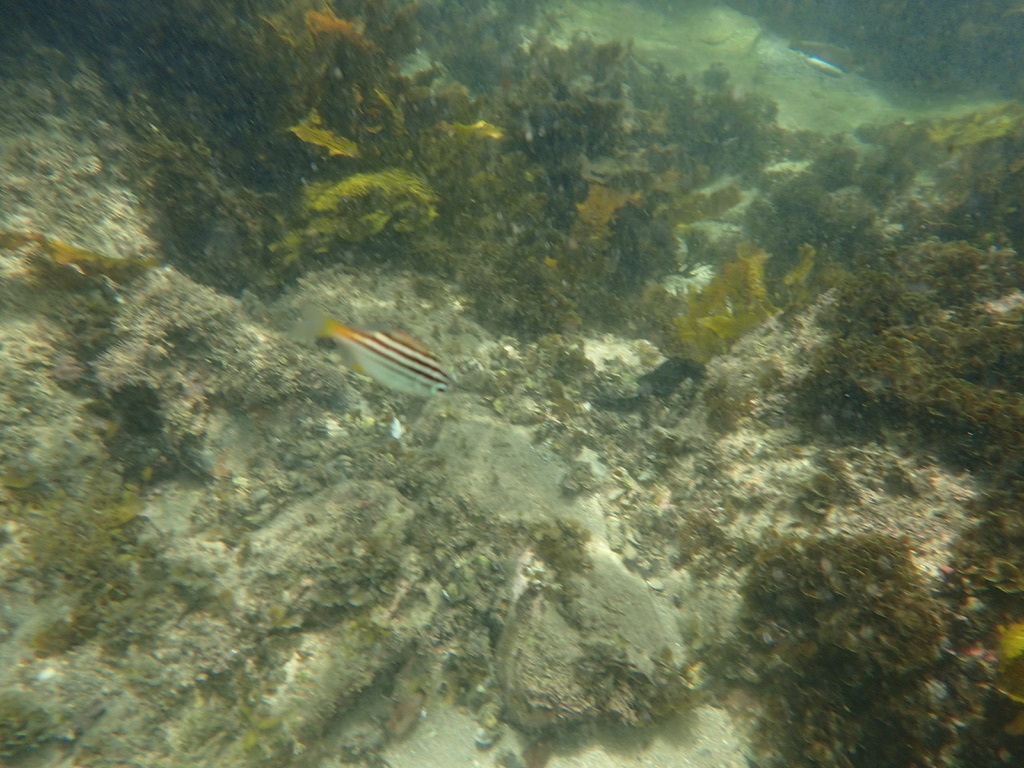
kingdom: Animalia
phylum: Chordata
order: Perciformes
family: Kyphosidae
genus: Atypichthys
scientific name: Atypichthys strigatus
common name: Australian mado
